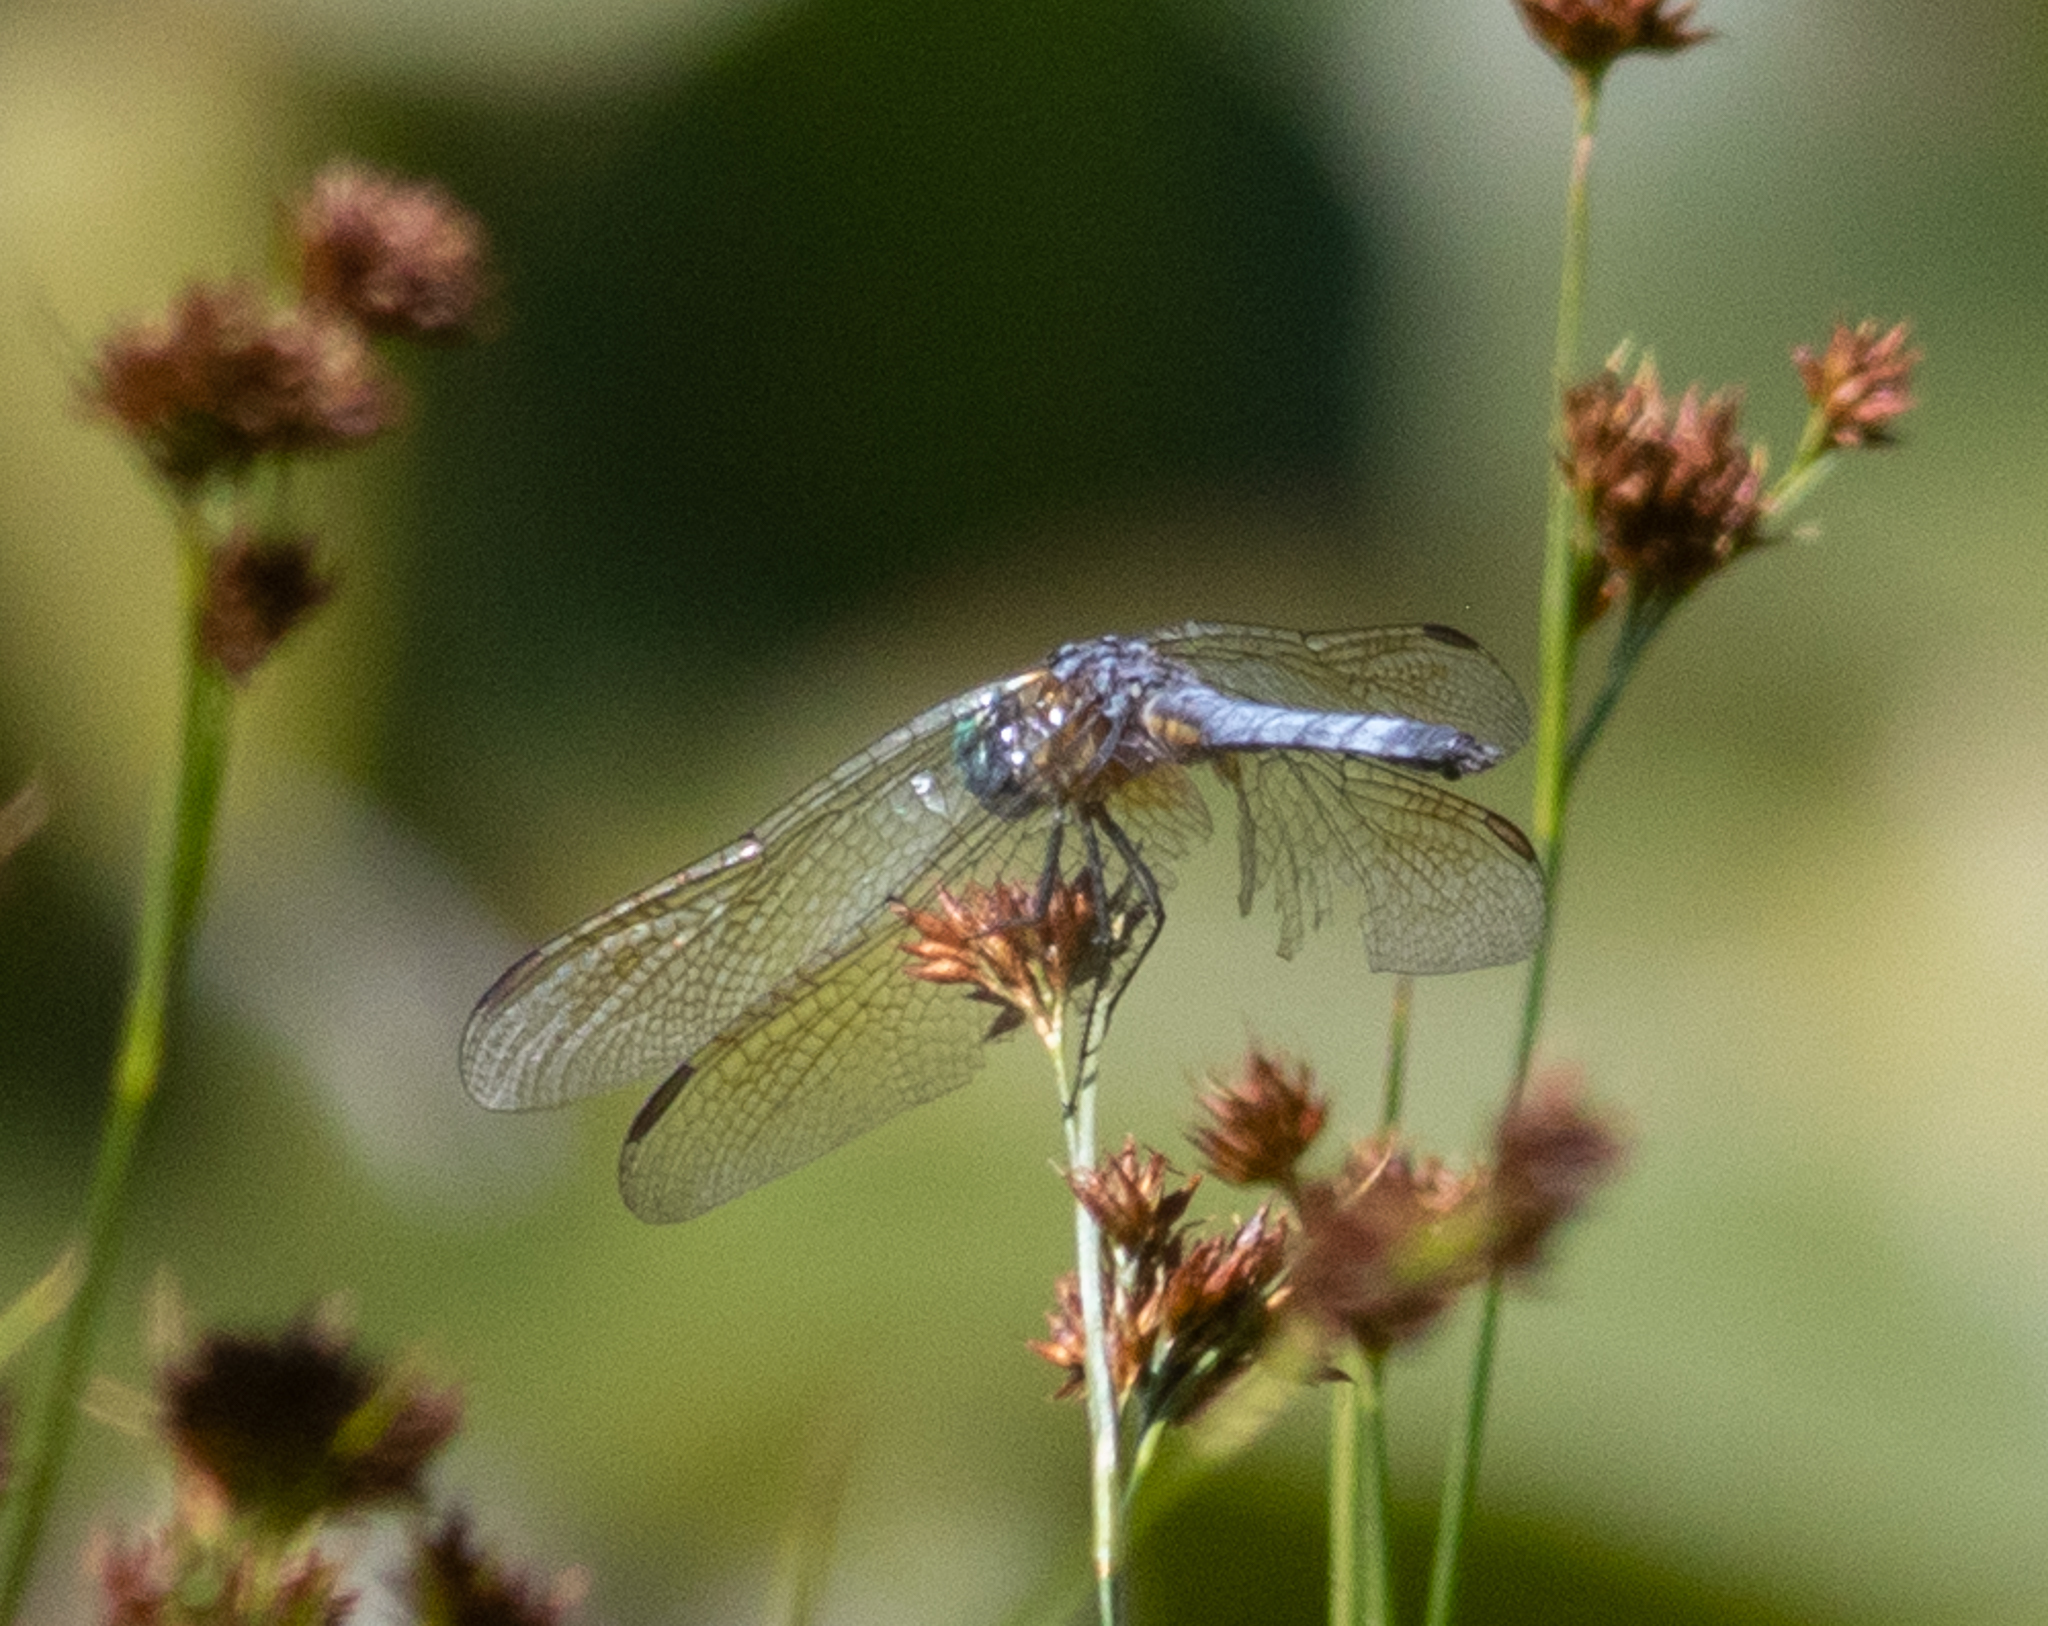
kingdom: Animalia
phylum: Arthropoda
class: Insecta
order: Odonata
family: Libellulidae
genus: Pachydiplax
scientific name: Pachydiplax longipennis
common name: Blue dasher
